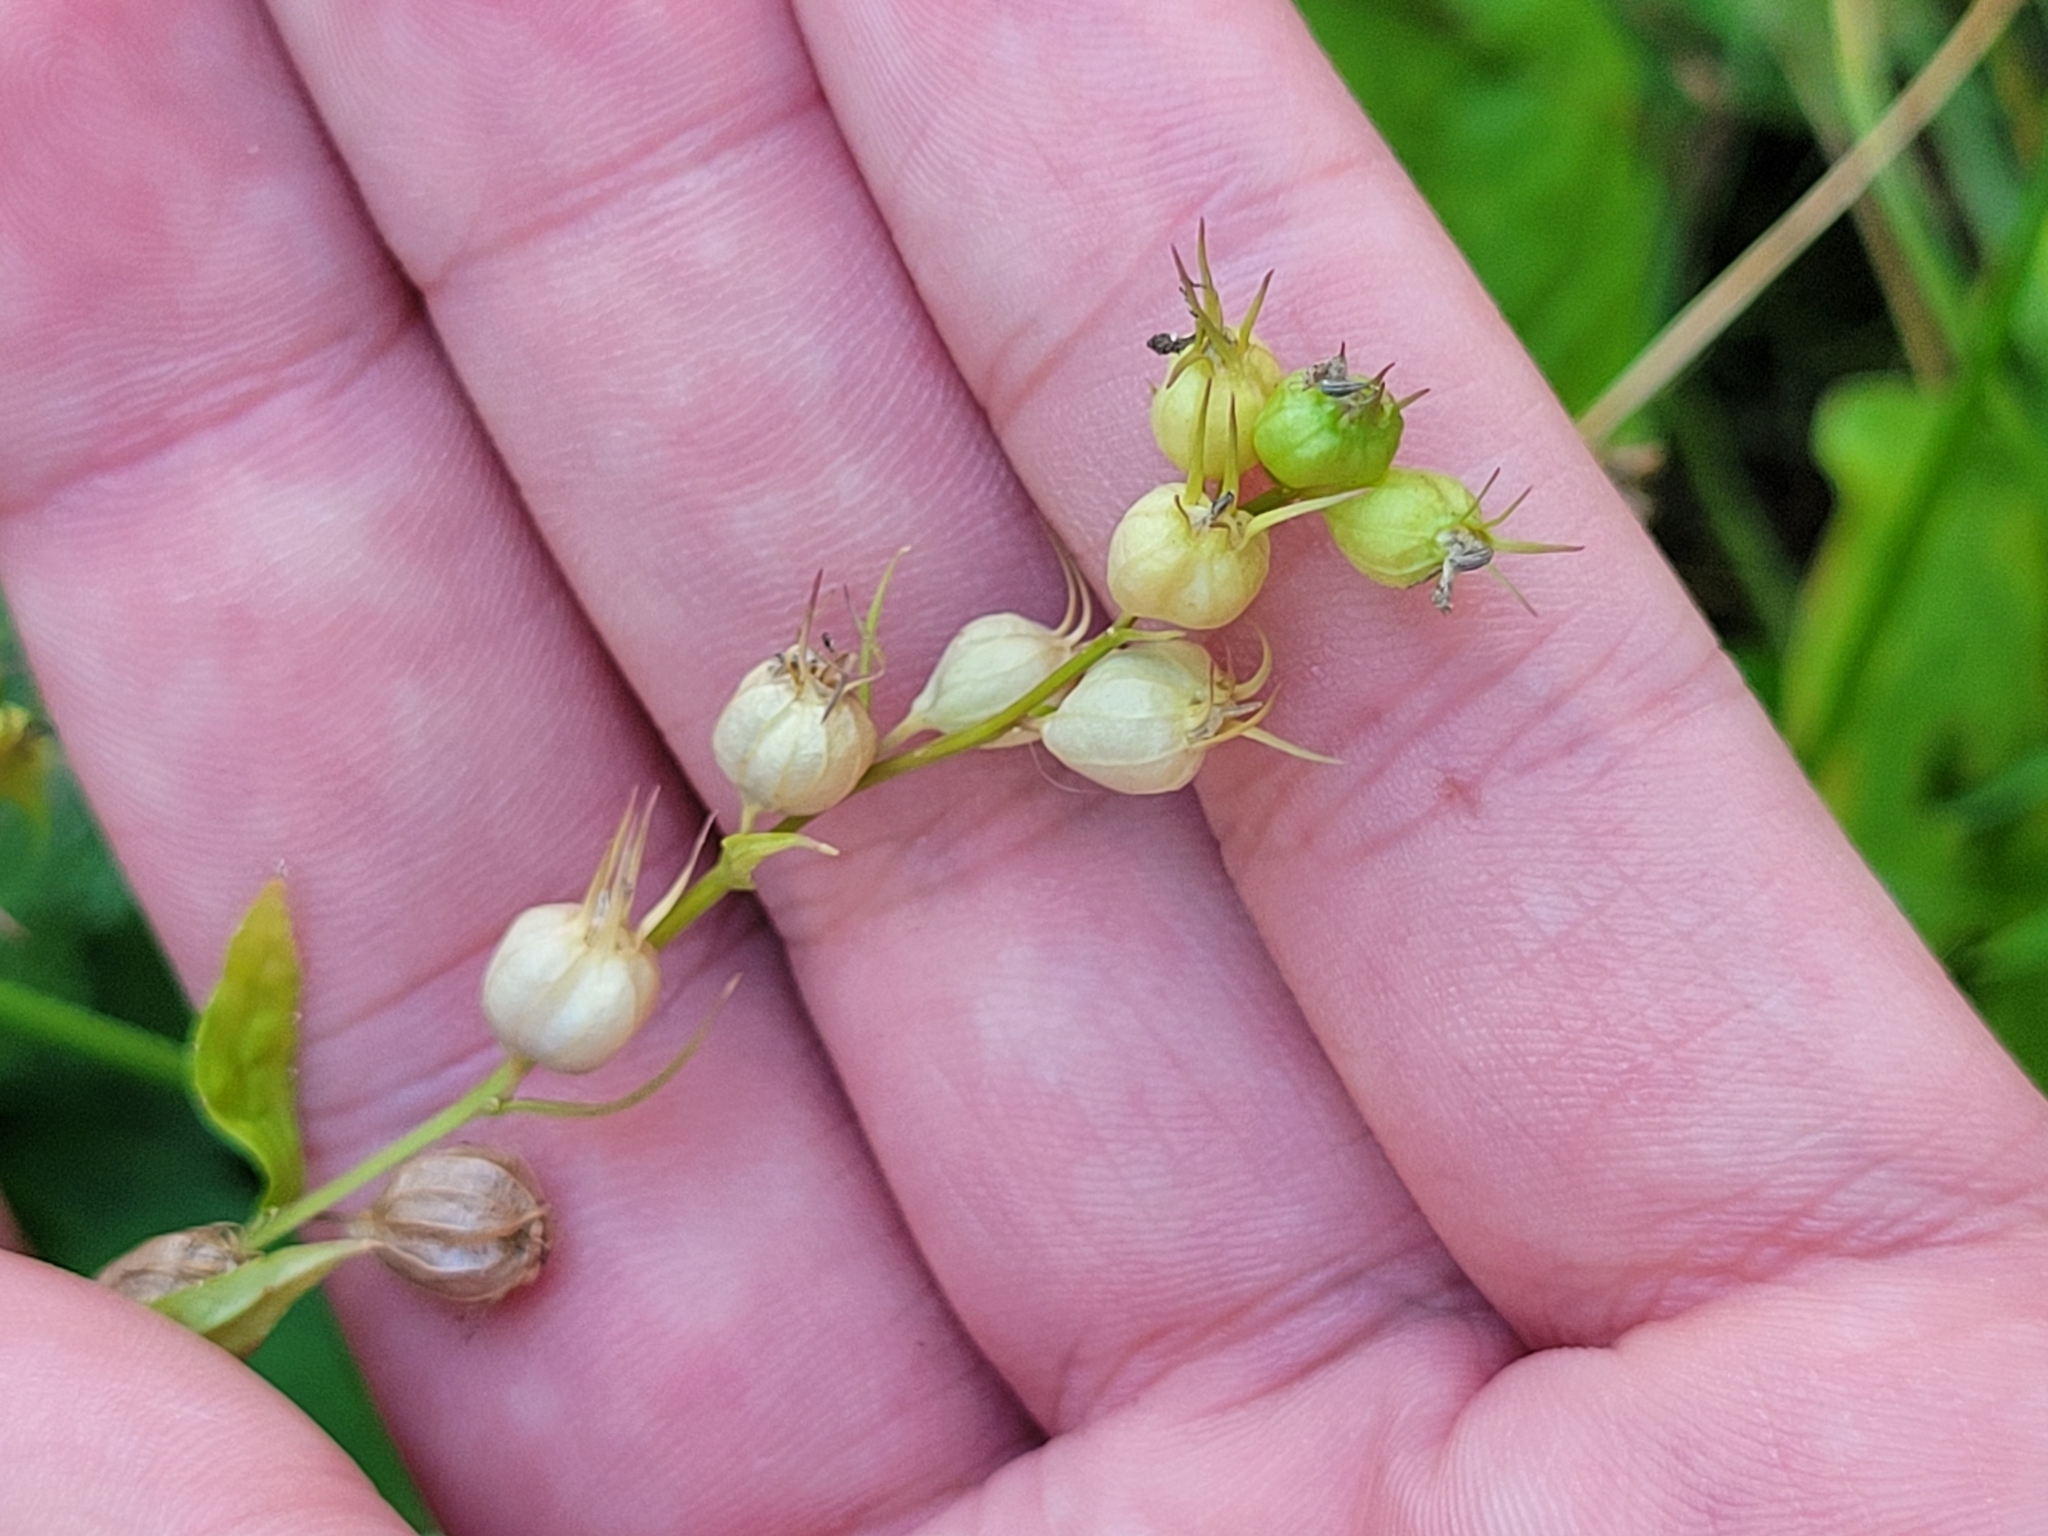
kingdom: Plantae
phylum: Tracheophyta
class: Magnoliopsida
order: Asterales
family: Campanulaceae
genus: Lobelia
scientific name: Lobelia inflata
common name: Indian tobacco
